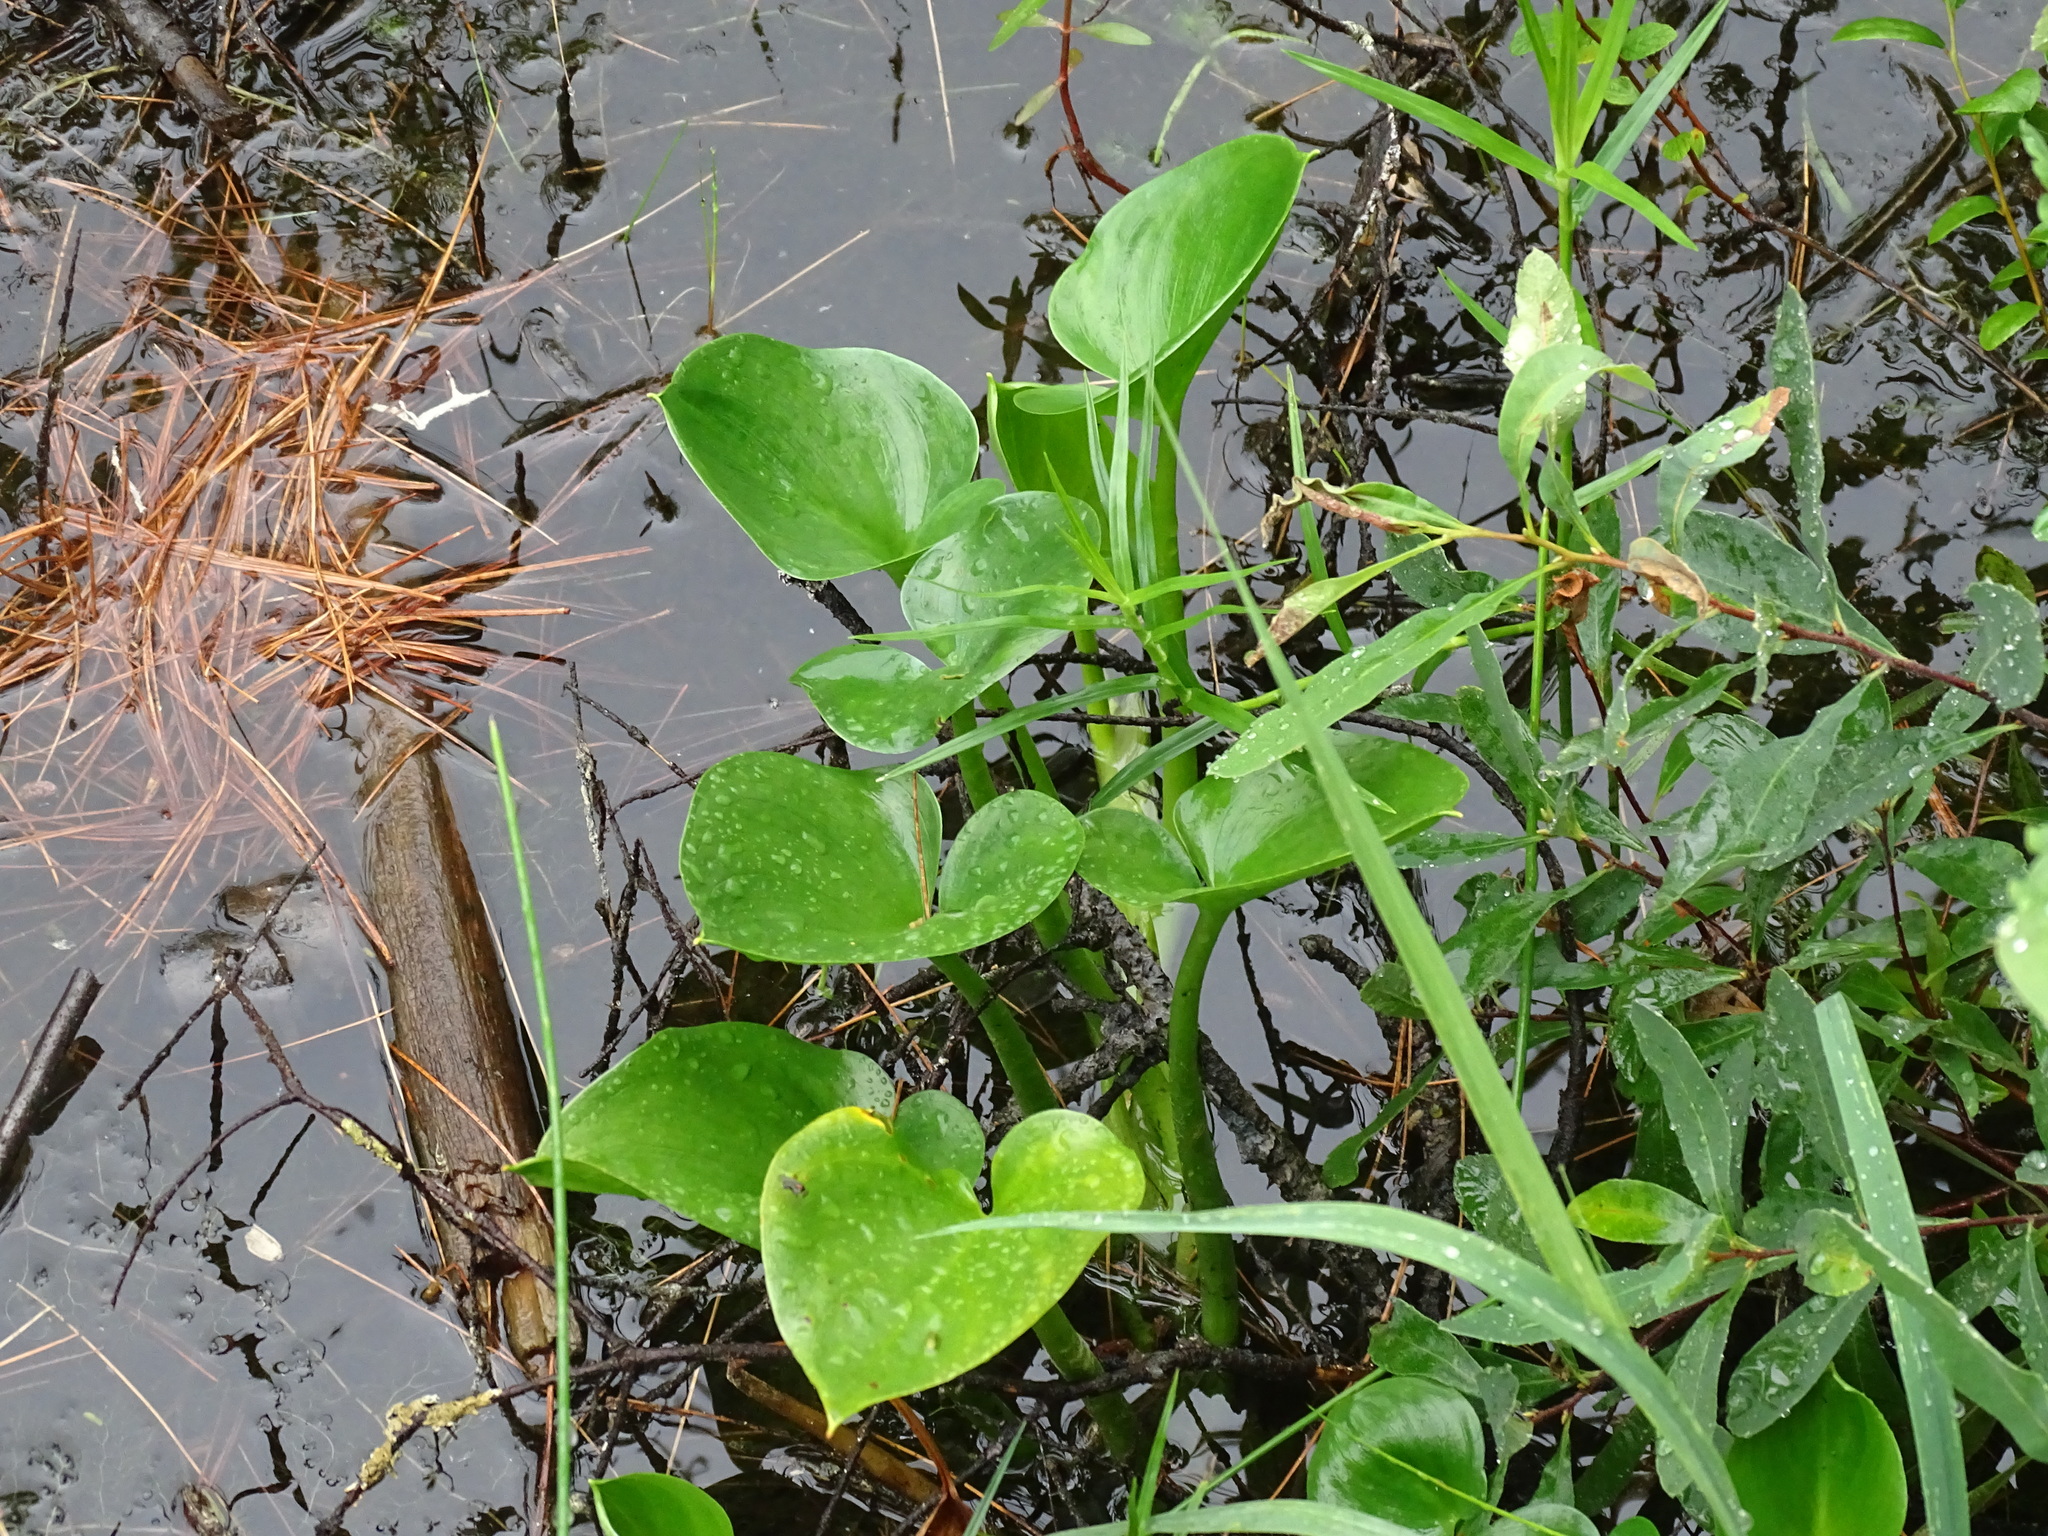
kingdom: Plantae
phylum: Tracheophyta
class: Liliopsida
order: Alismatales
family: Araceae
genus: Calla
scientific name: Calla palustris
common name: Bog arum
